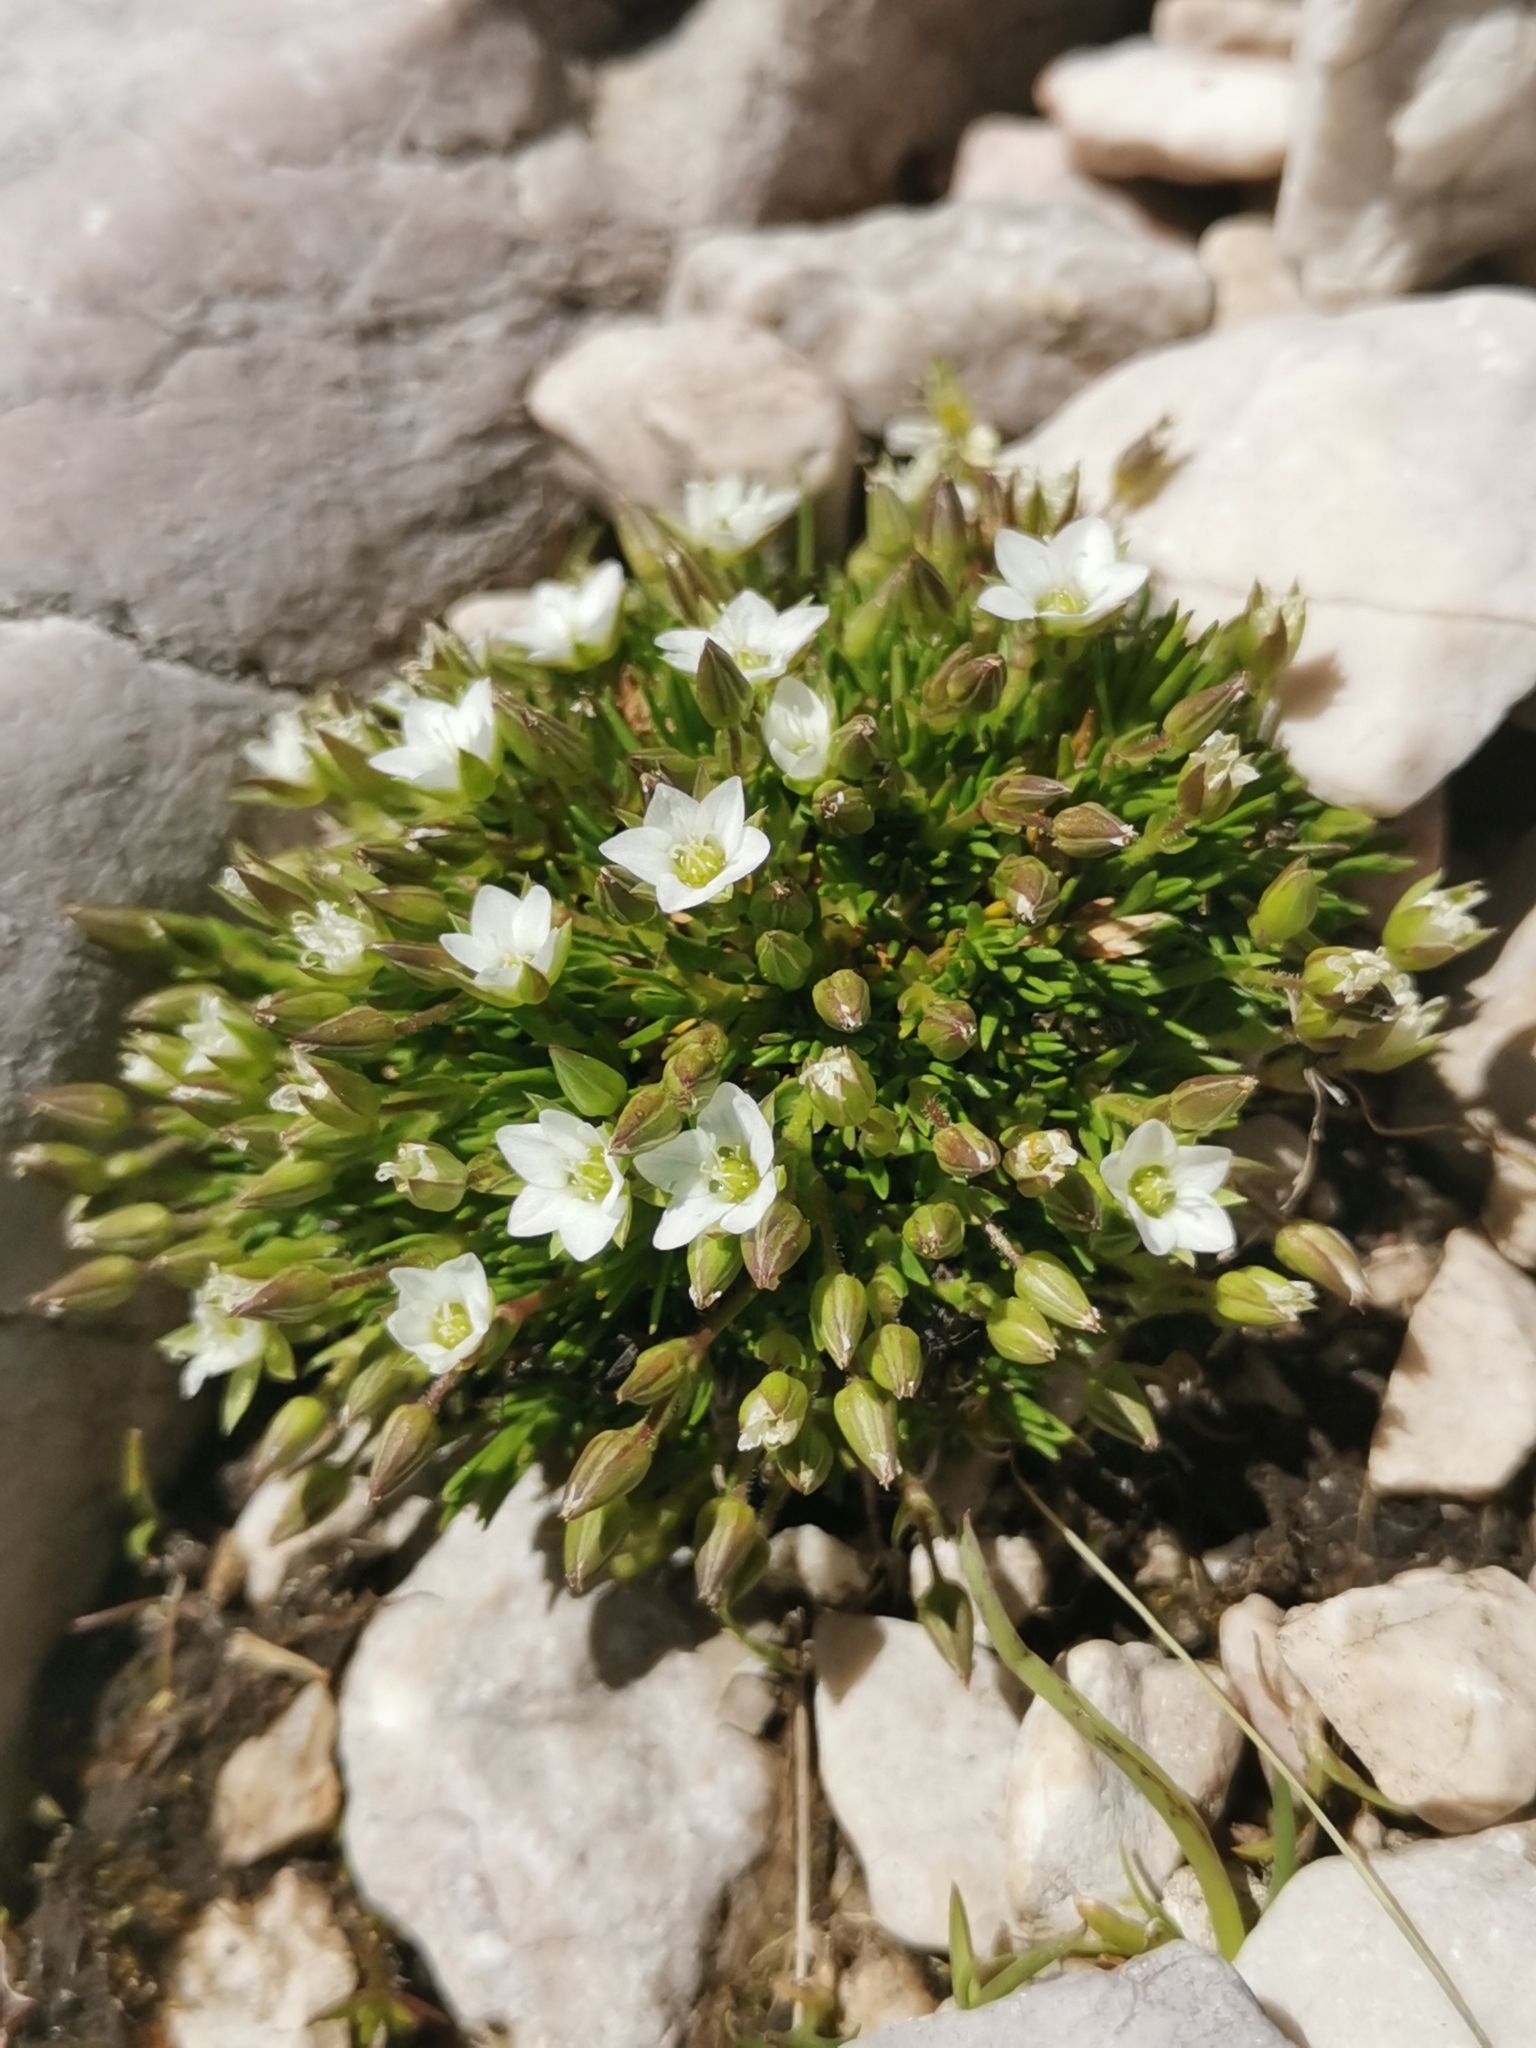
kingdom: Plantae
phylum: Tracheophyta
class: Magnoliopsida
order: Caryophyllales
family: Caryophyllaceae
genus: Sabulina
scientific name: Sabulina verna
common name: Spring sandwort
